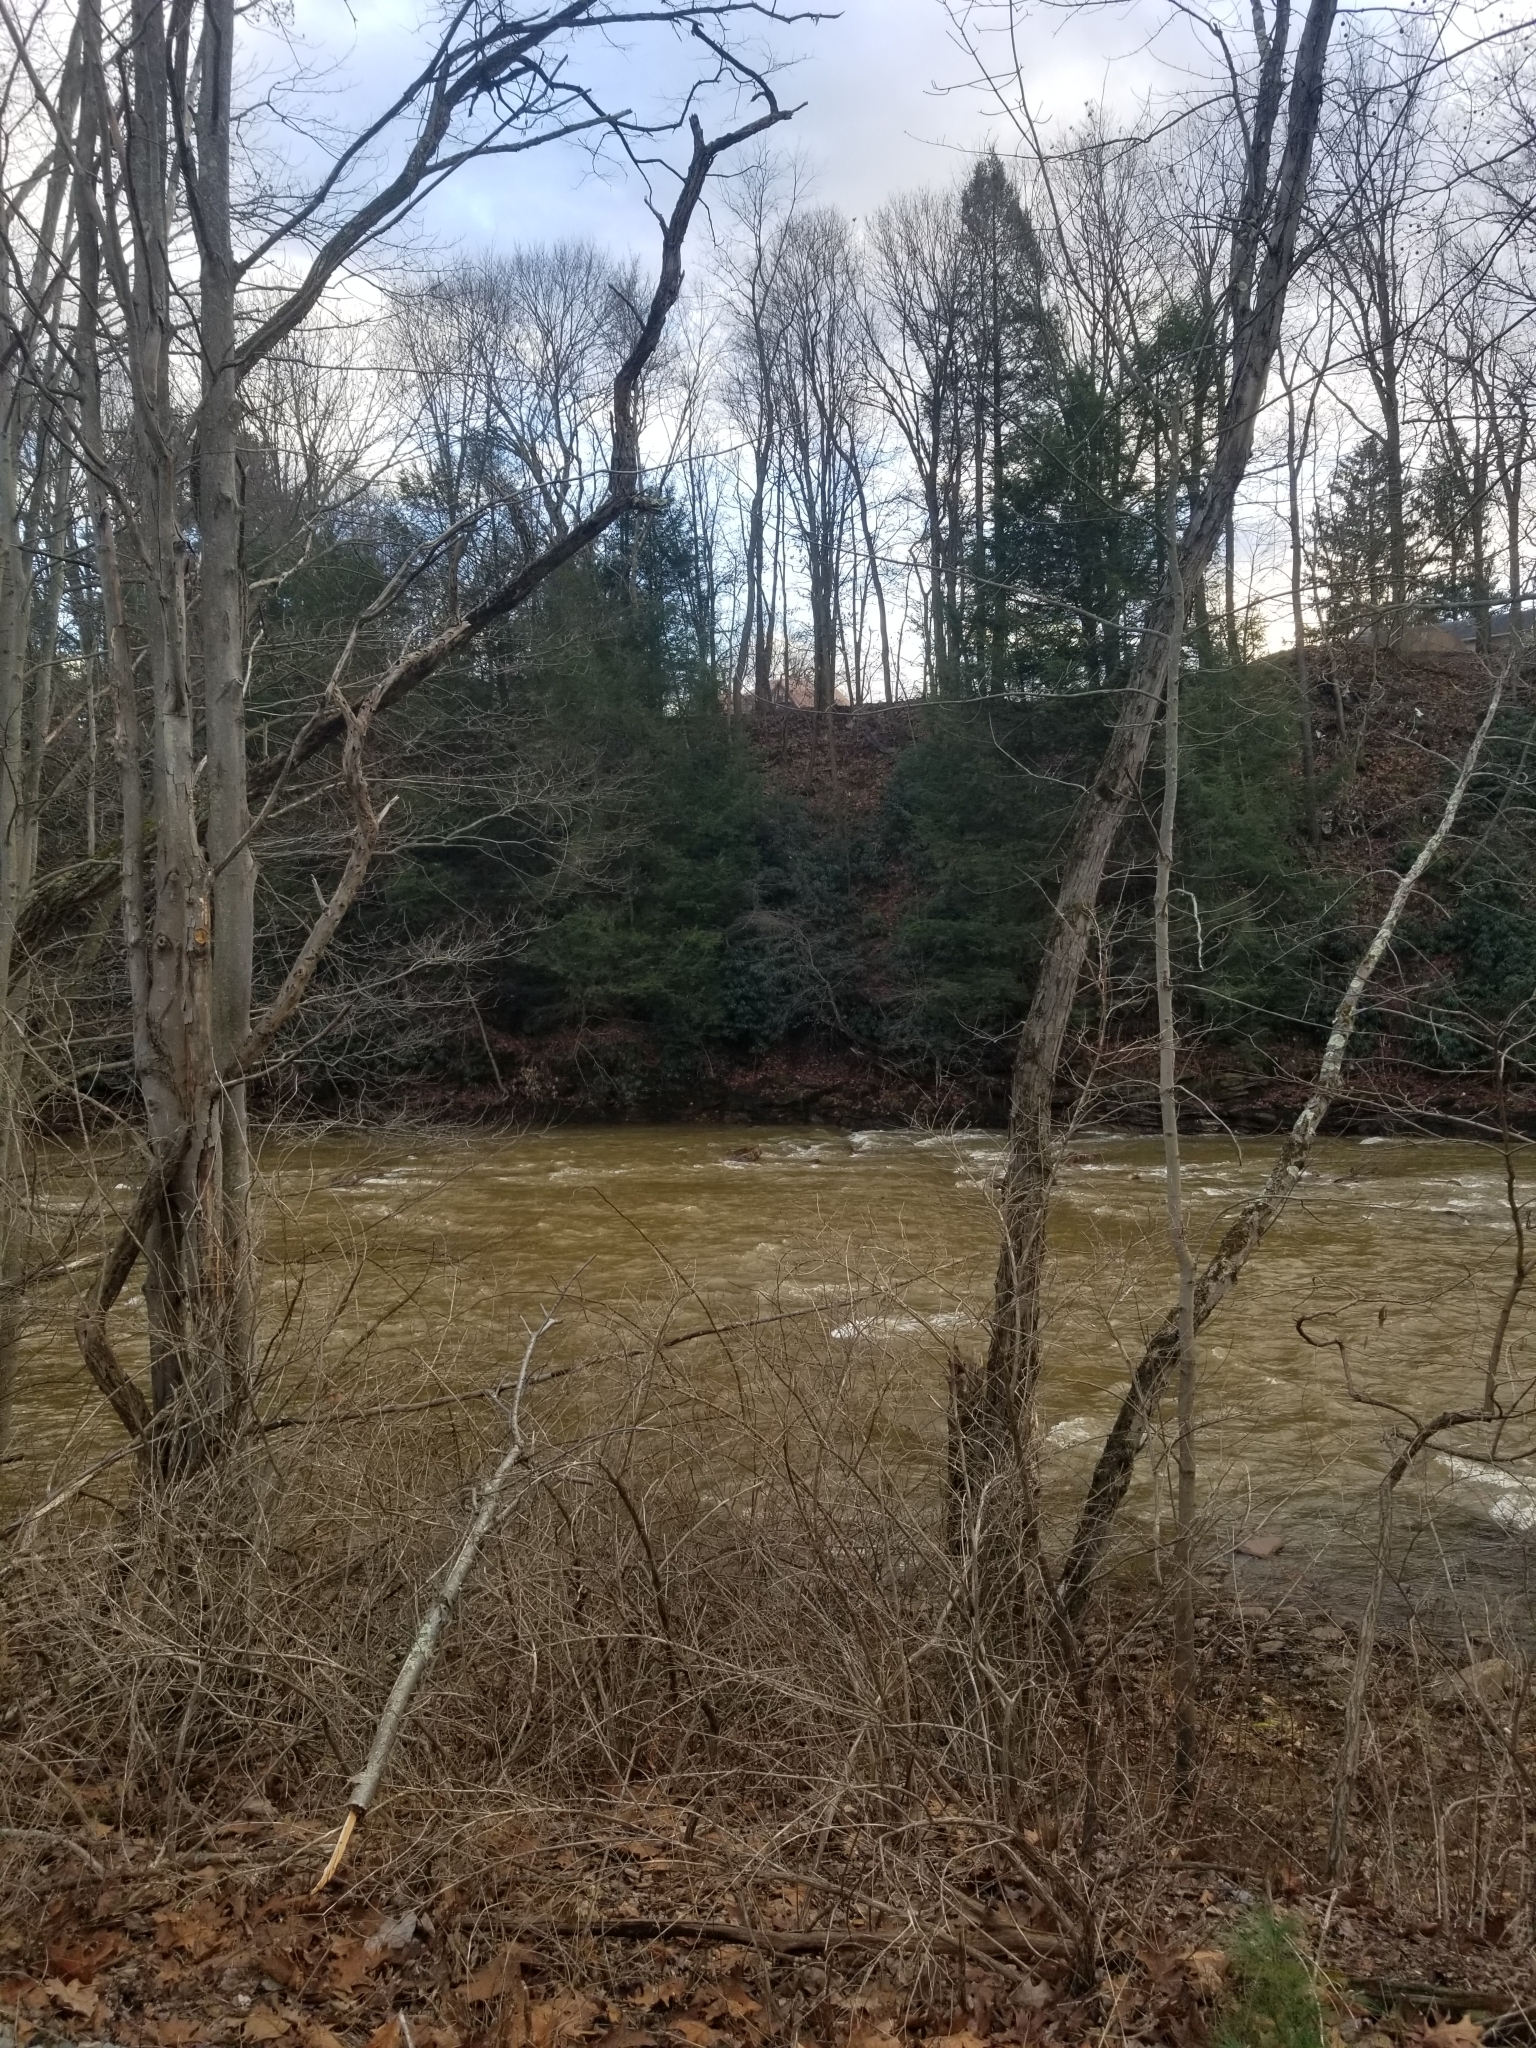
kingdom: Plantae
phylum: Tracheophyta
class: Pinopsida
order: Pinales
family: Pinaceae
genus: Tsuga
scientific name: Tsuga canadensis
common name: Eastern hemlock
